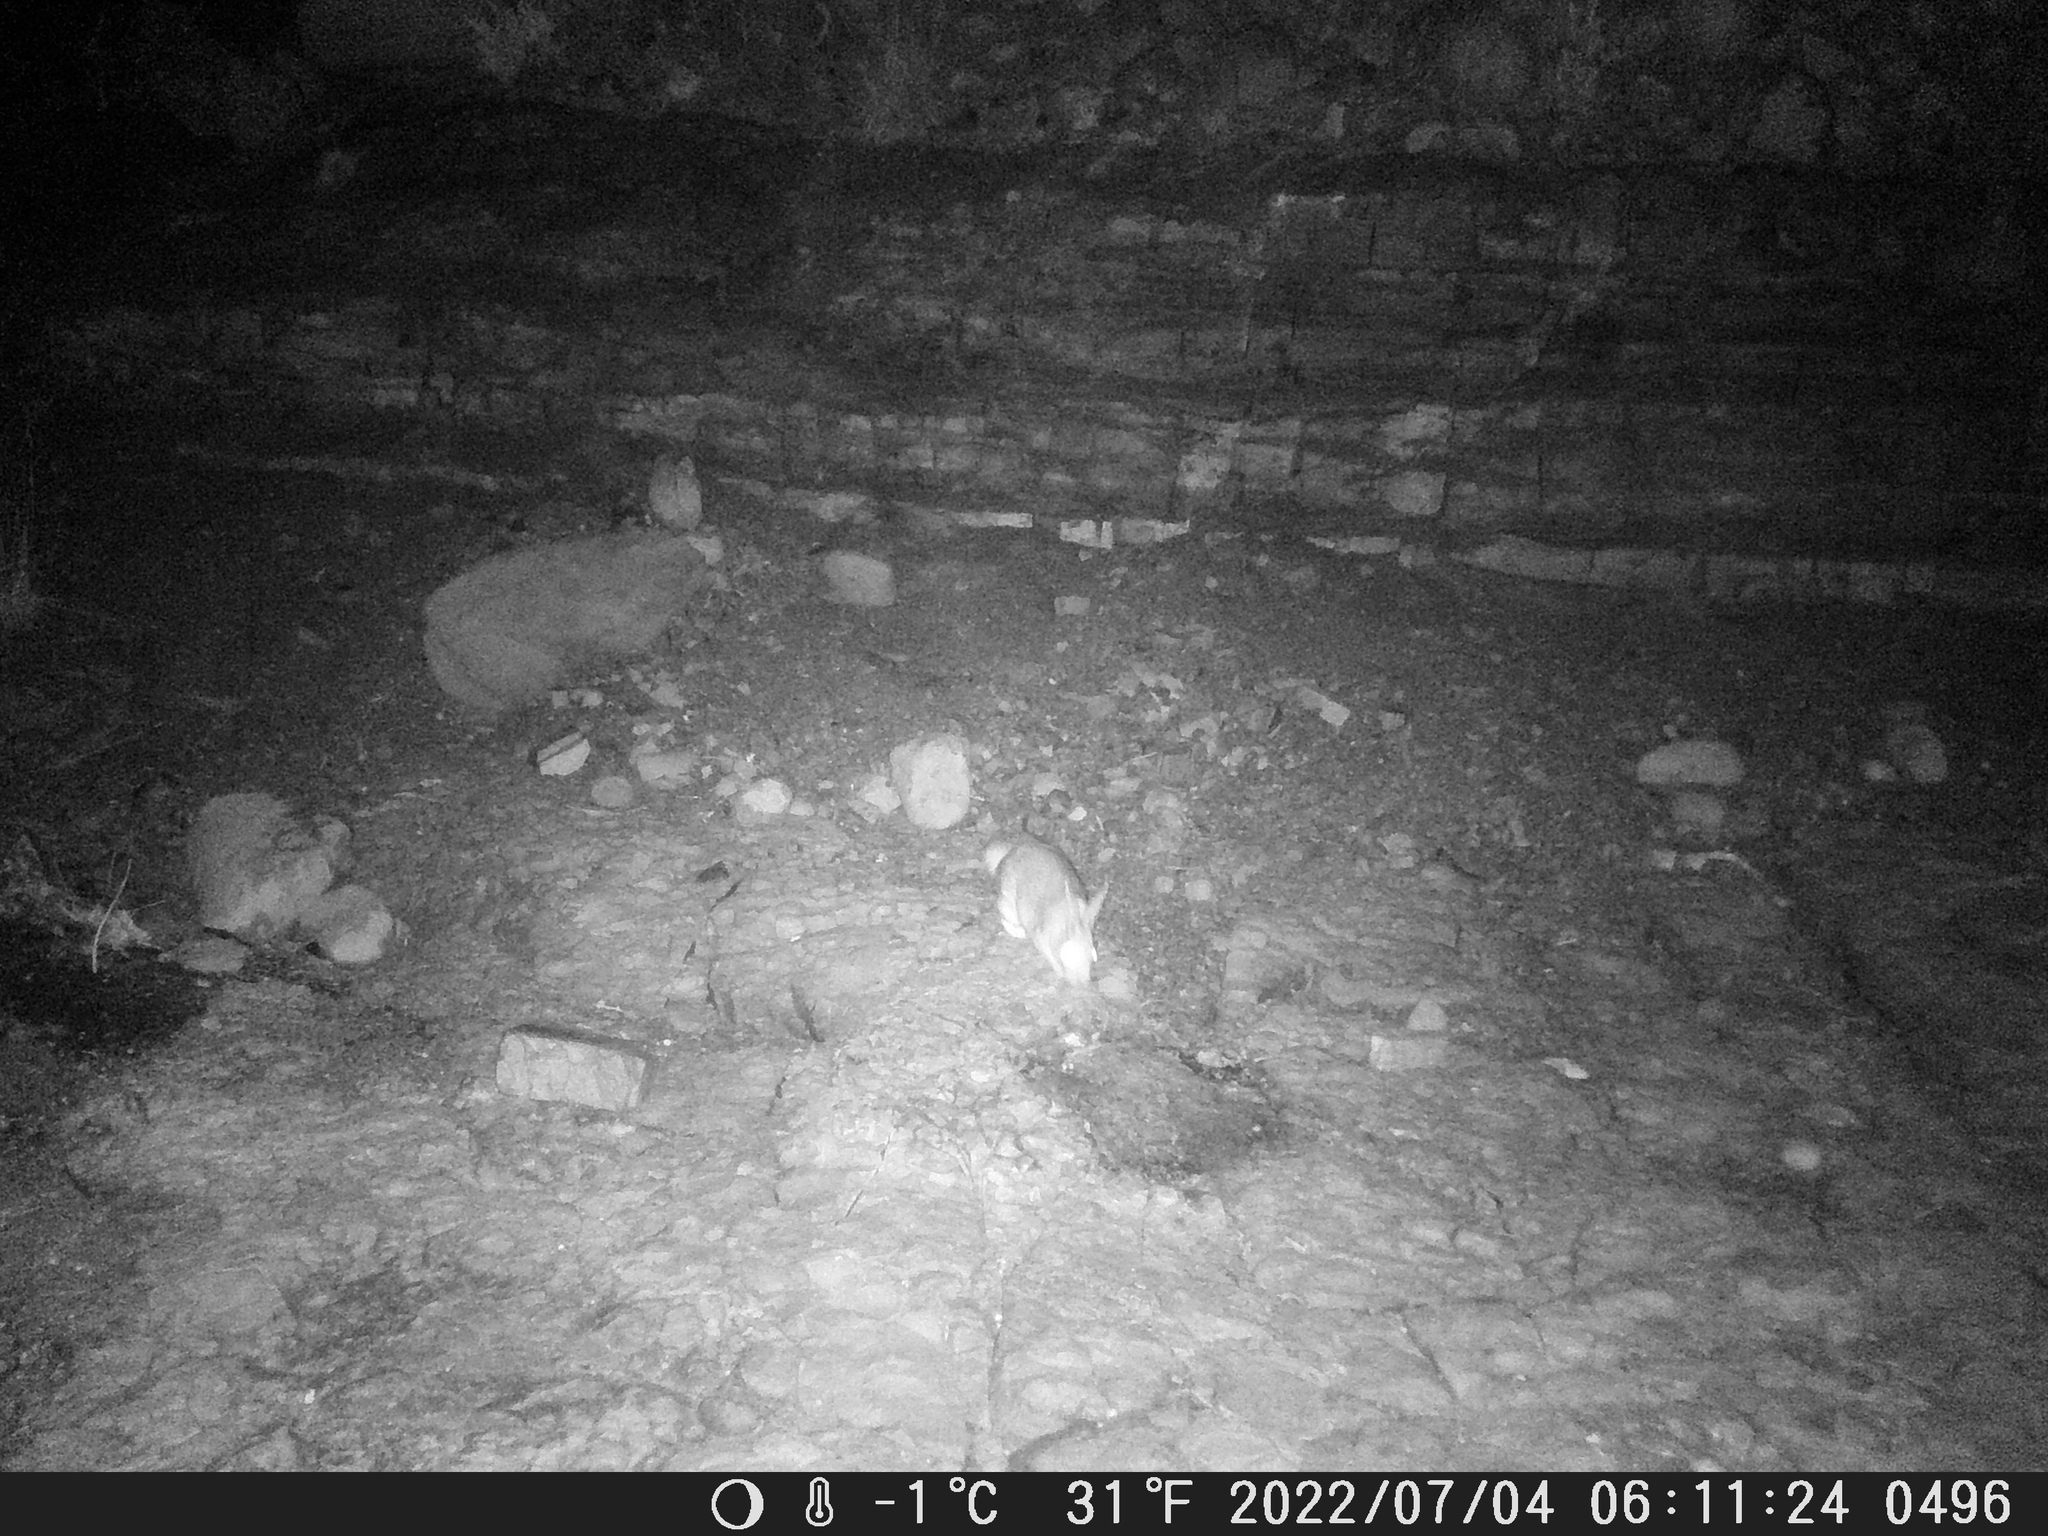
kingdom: Animalia
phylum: Chordata
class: Mammalia
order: Lagomorpha
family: Leporidae
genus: Pronolagus
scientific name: Pronolagus saundersiae
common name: Hewitt's red rock hare
